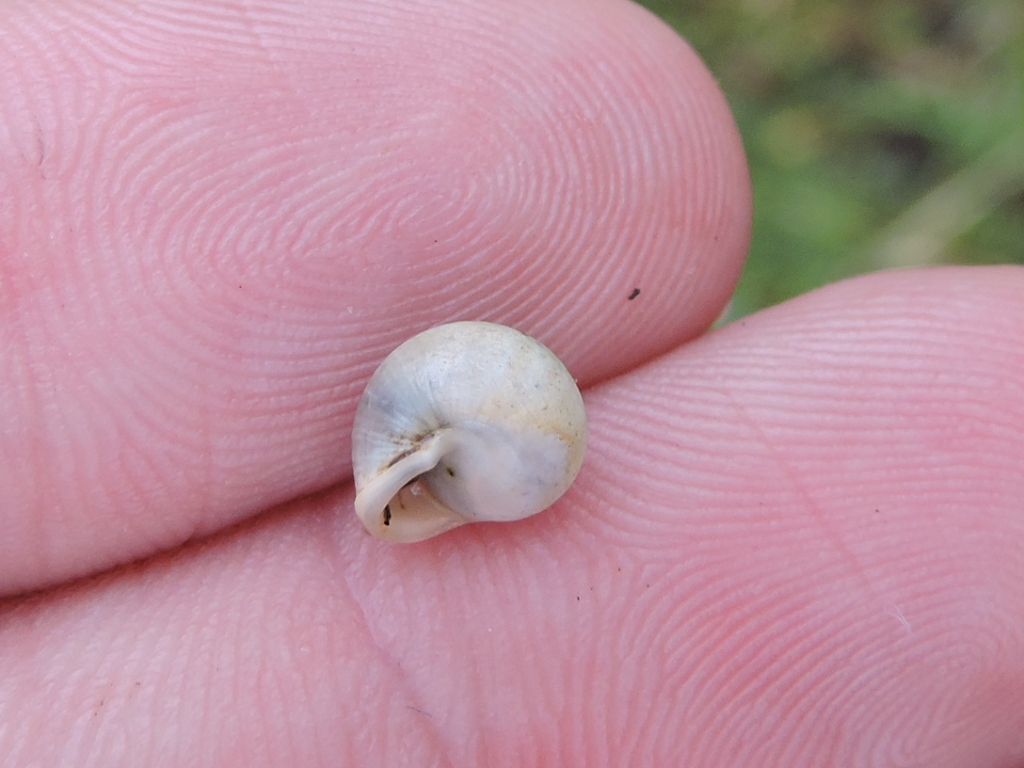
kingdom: Animalia
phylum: Mollusca
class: Gastropoda
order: Cycloneritida
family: Helicinidae
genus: Helicina
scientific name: Helicina orbiculata
